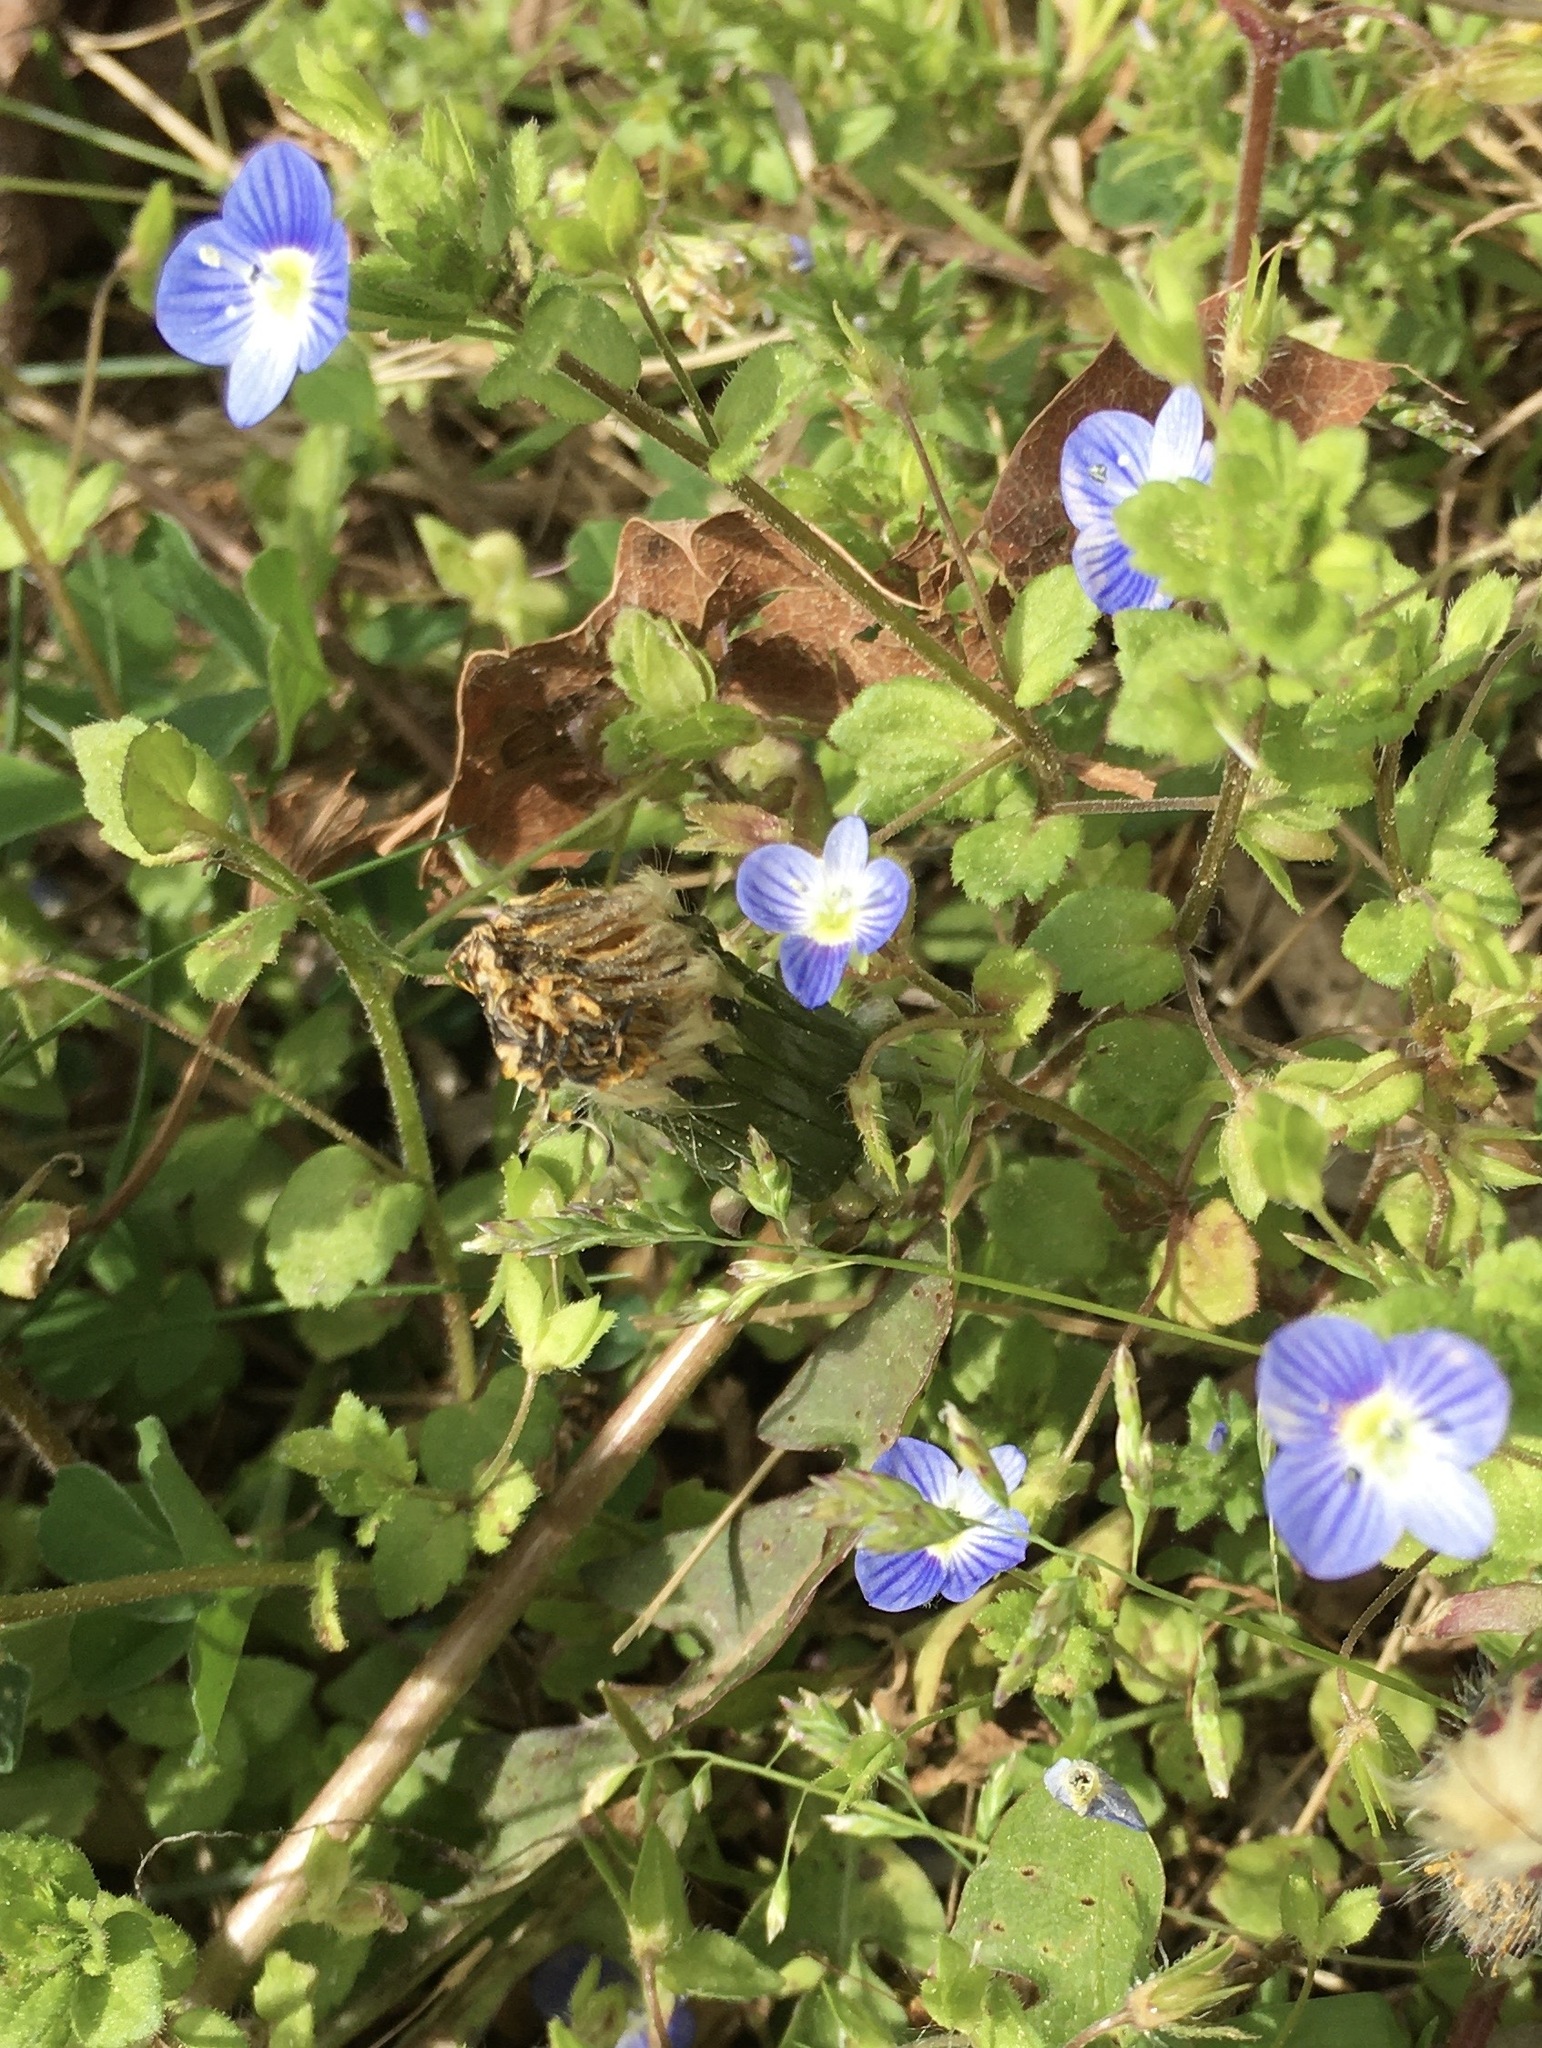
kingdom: Plantae
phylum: Tracheophyta
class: Magnoliopsida
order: Lamiales
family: Plantaginaceae
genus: Veronica
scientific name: Veronica persica
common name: Common field-speedwell
